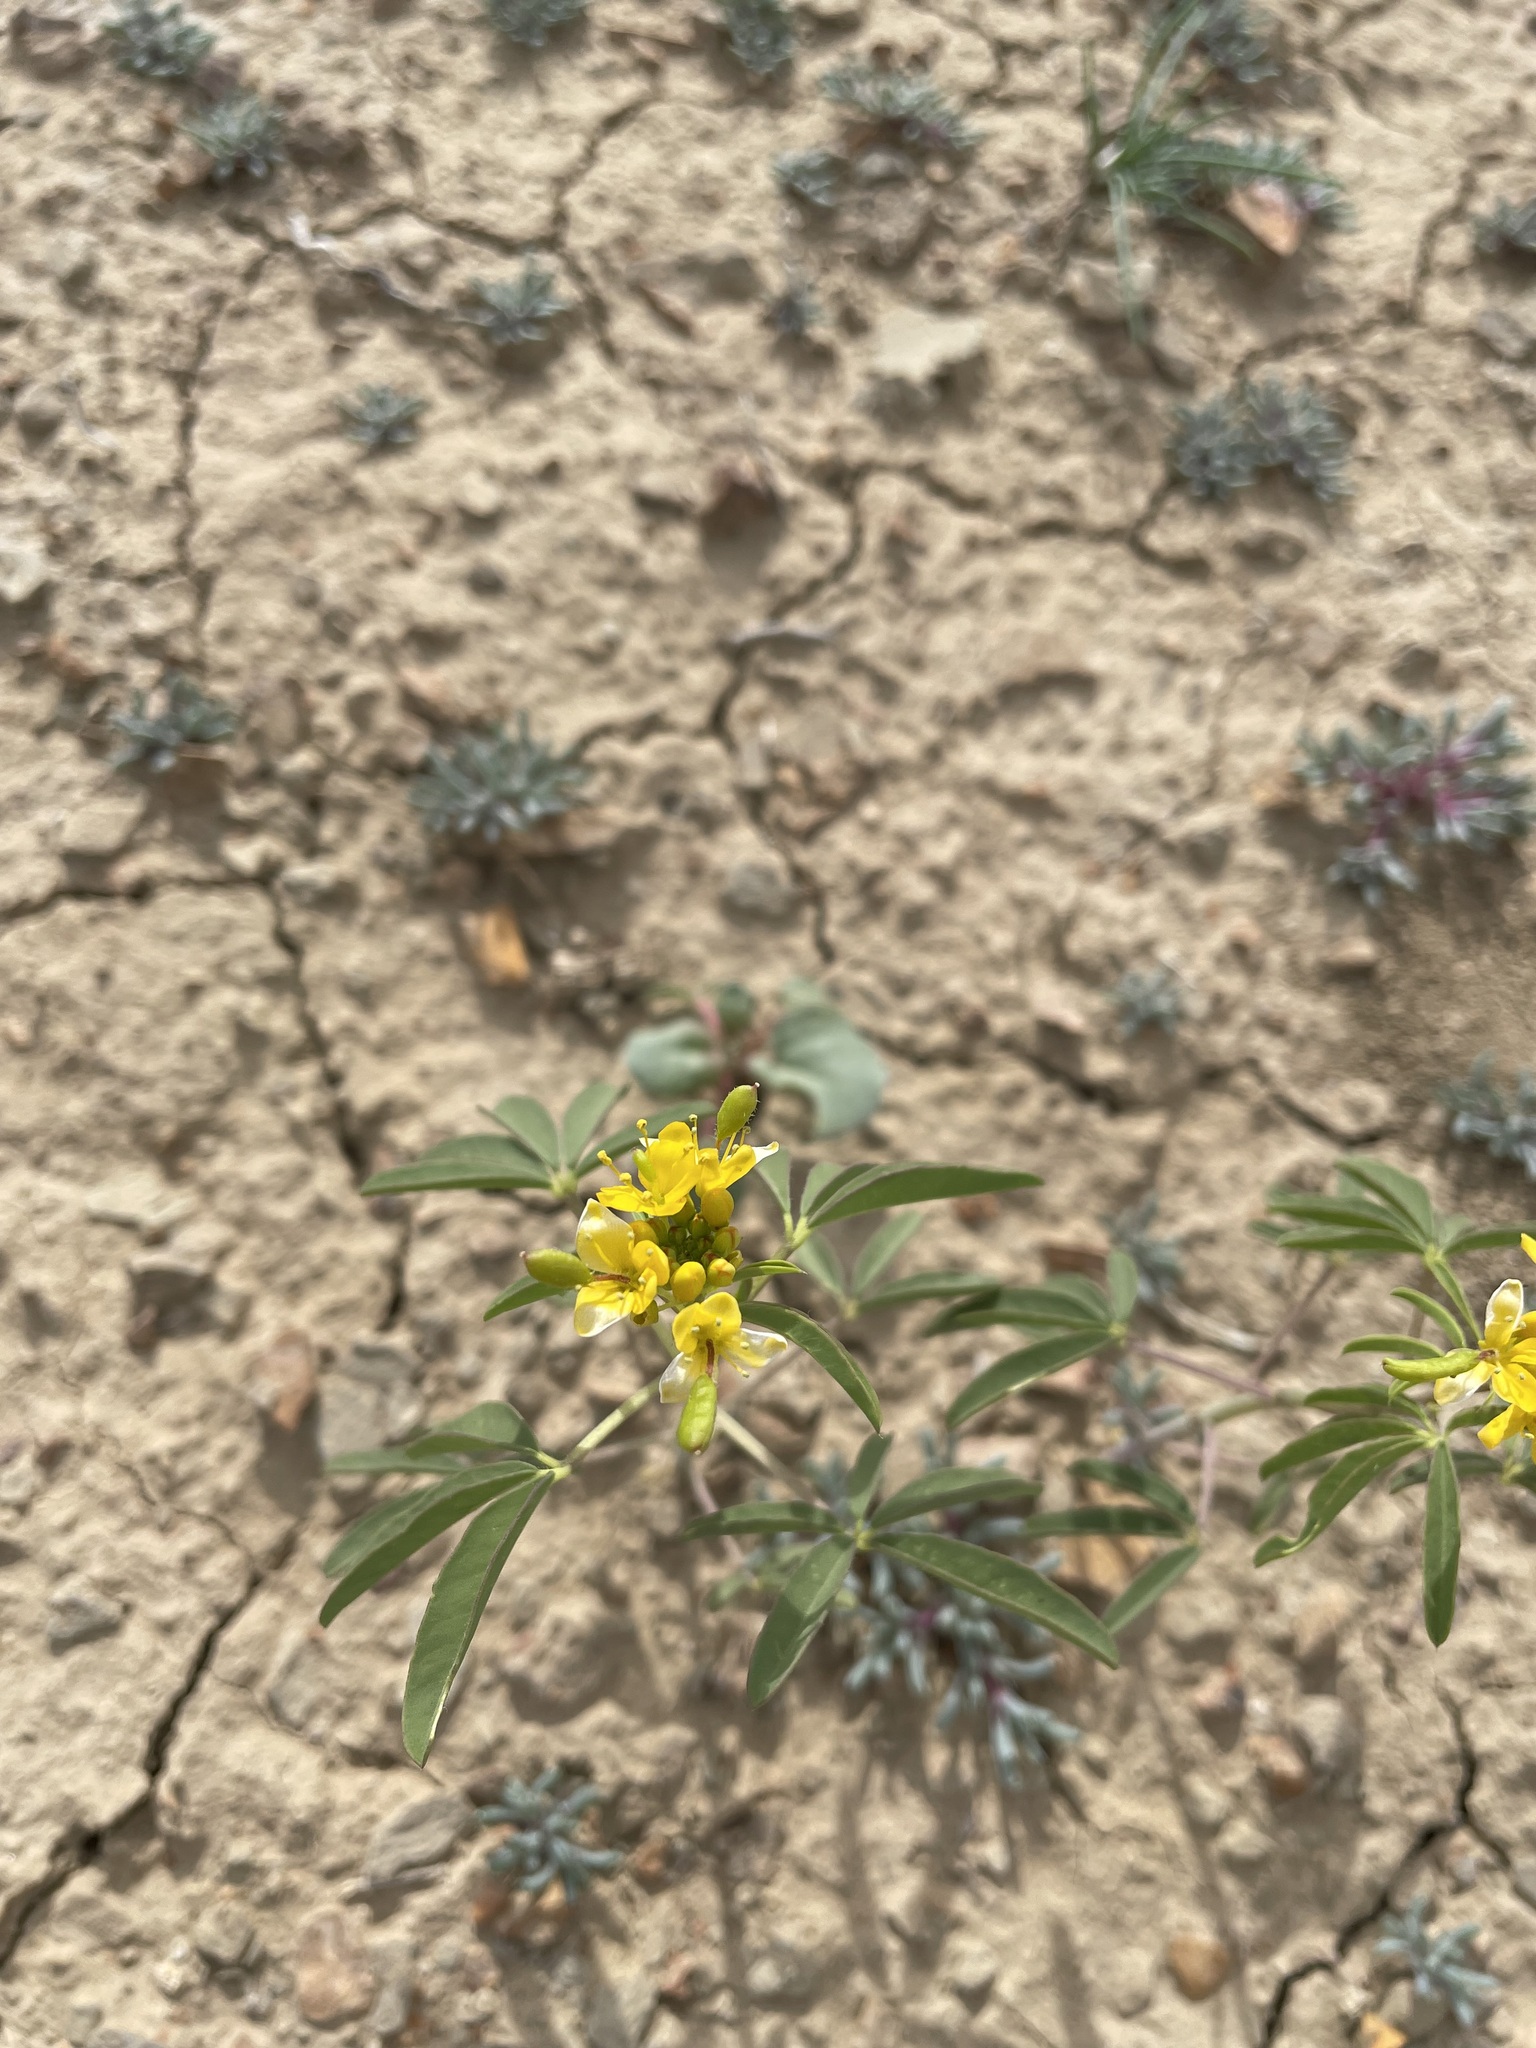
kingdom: Plantae
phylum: Tracheophyta
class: Magnoliopsida
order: Brassicales
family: Cleomaceae
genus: Cleomella
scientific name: Cleomella lutea
